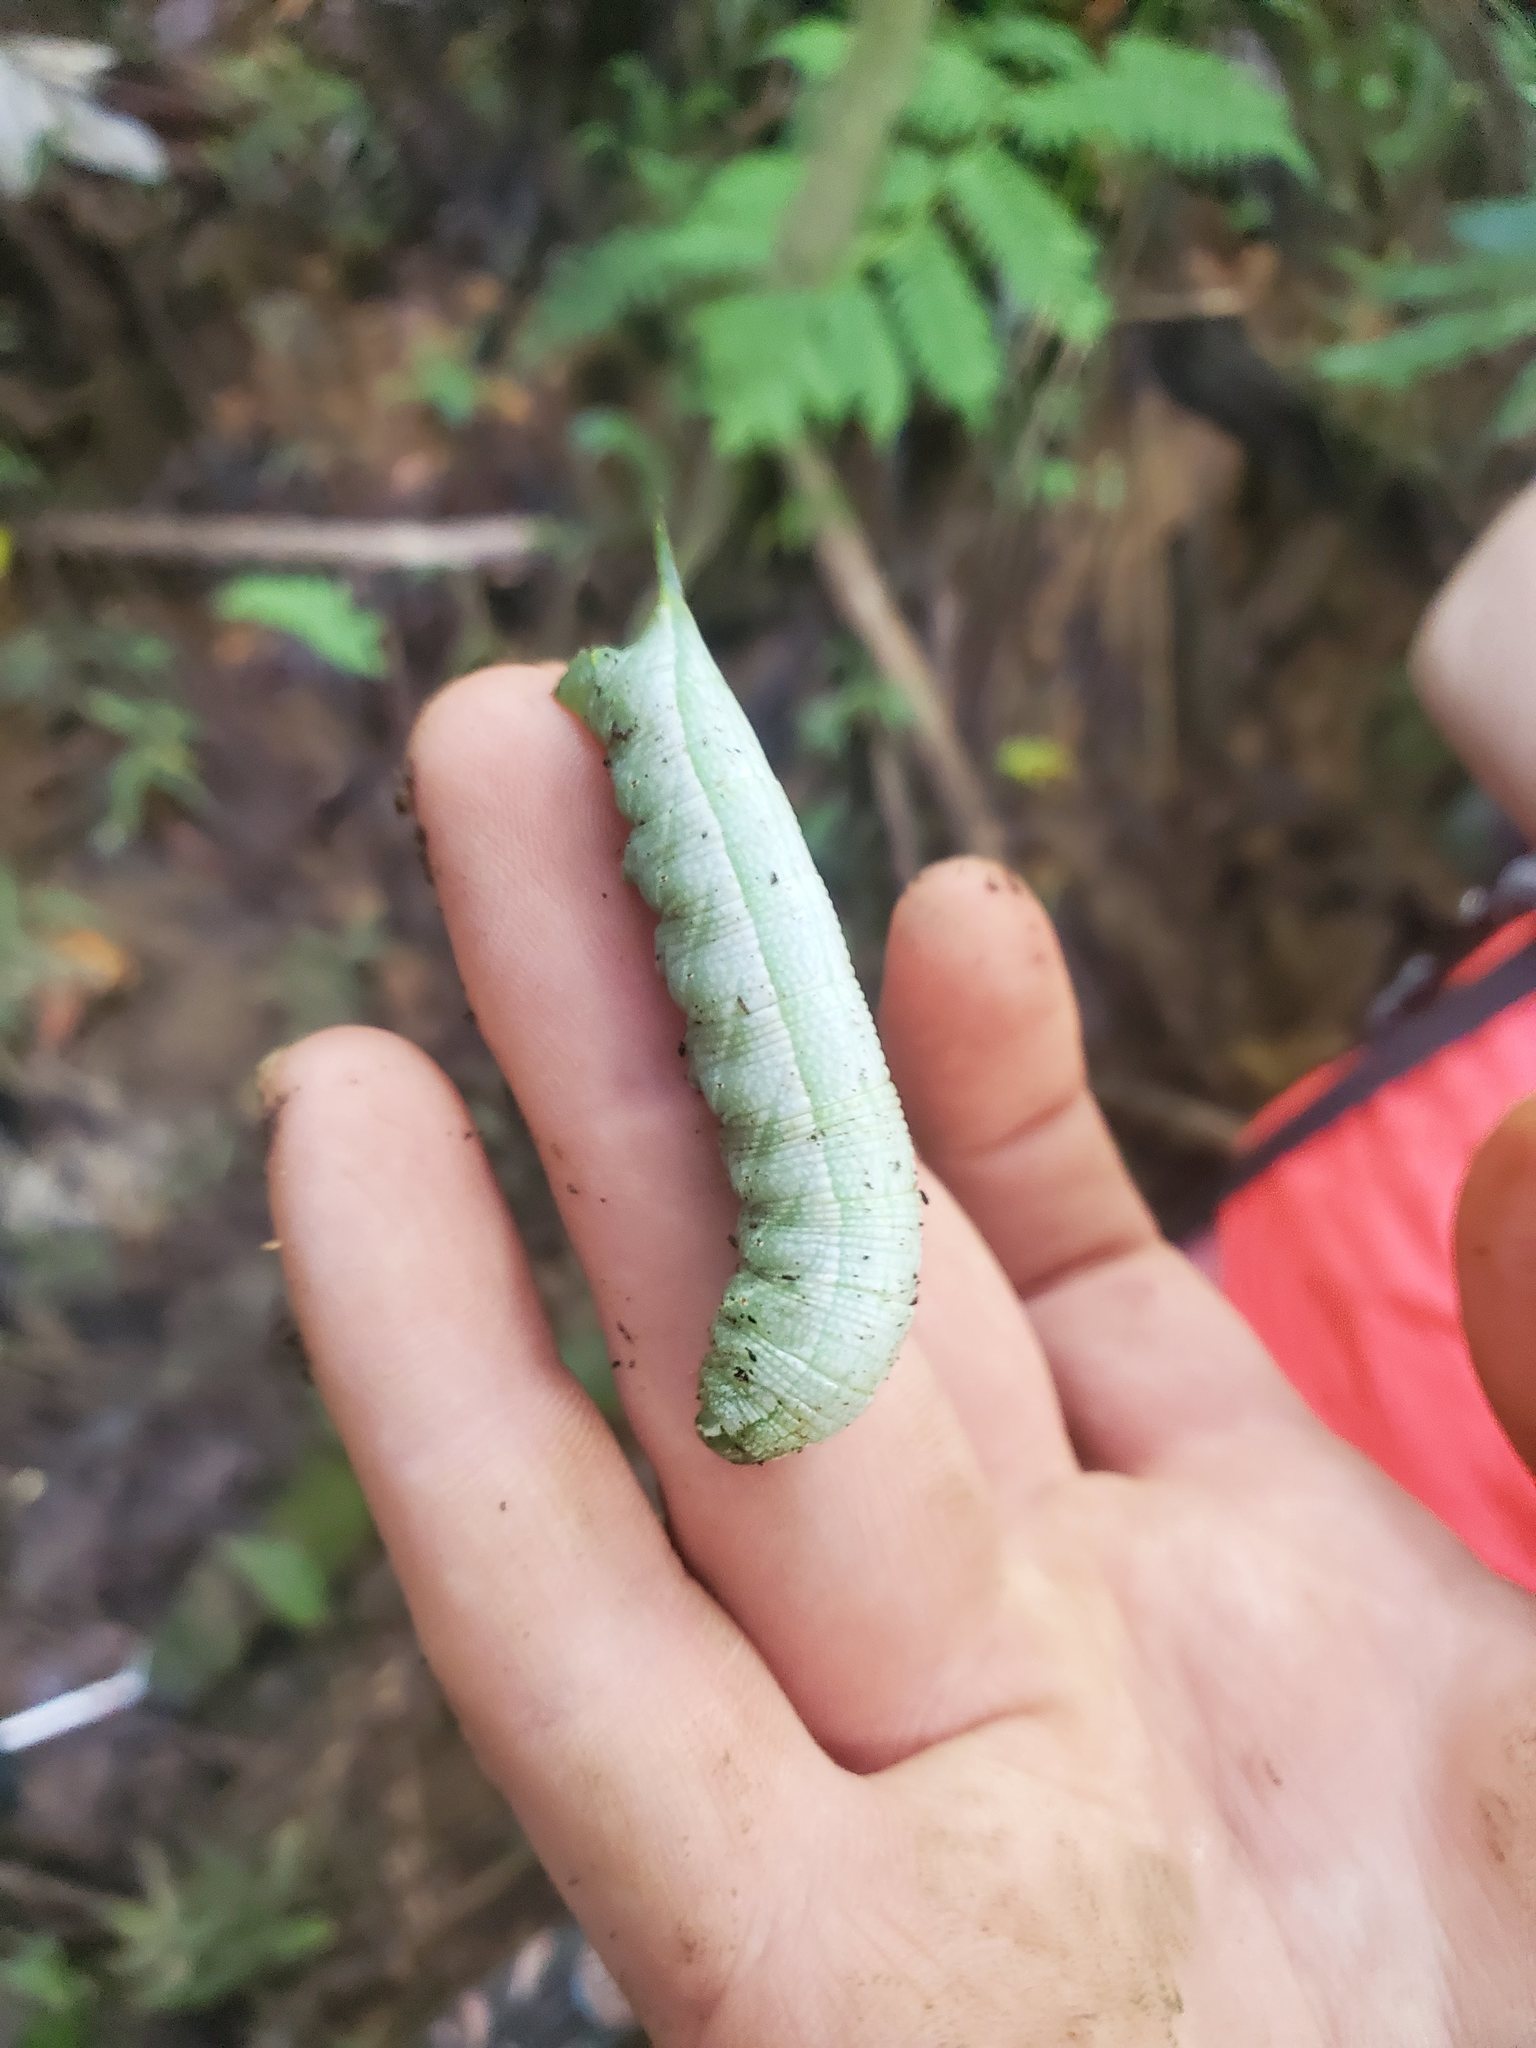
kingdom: Animalia
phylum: Arthropoda
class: Insecta
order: Lepidoptera
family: Sphingidae
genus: Enyo
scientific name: Enyo lugubris
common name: Mournful sphinx
